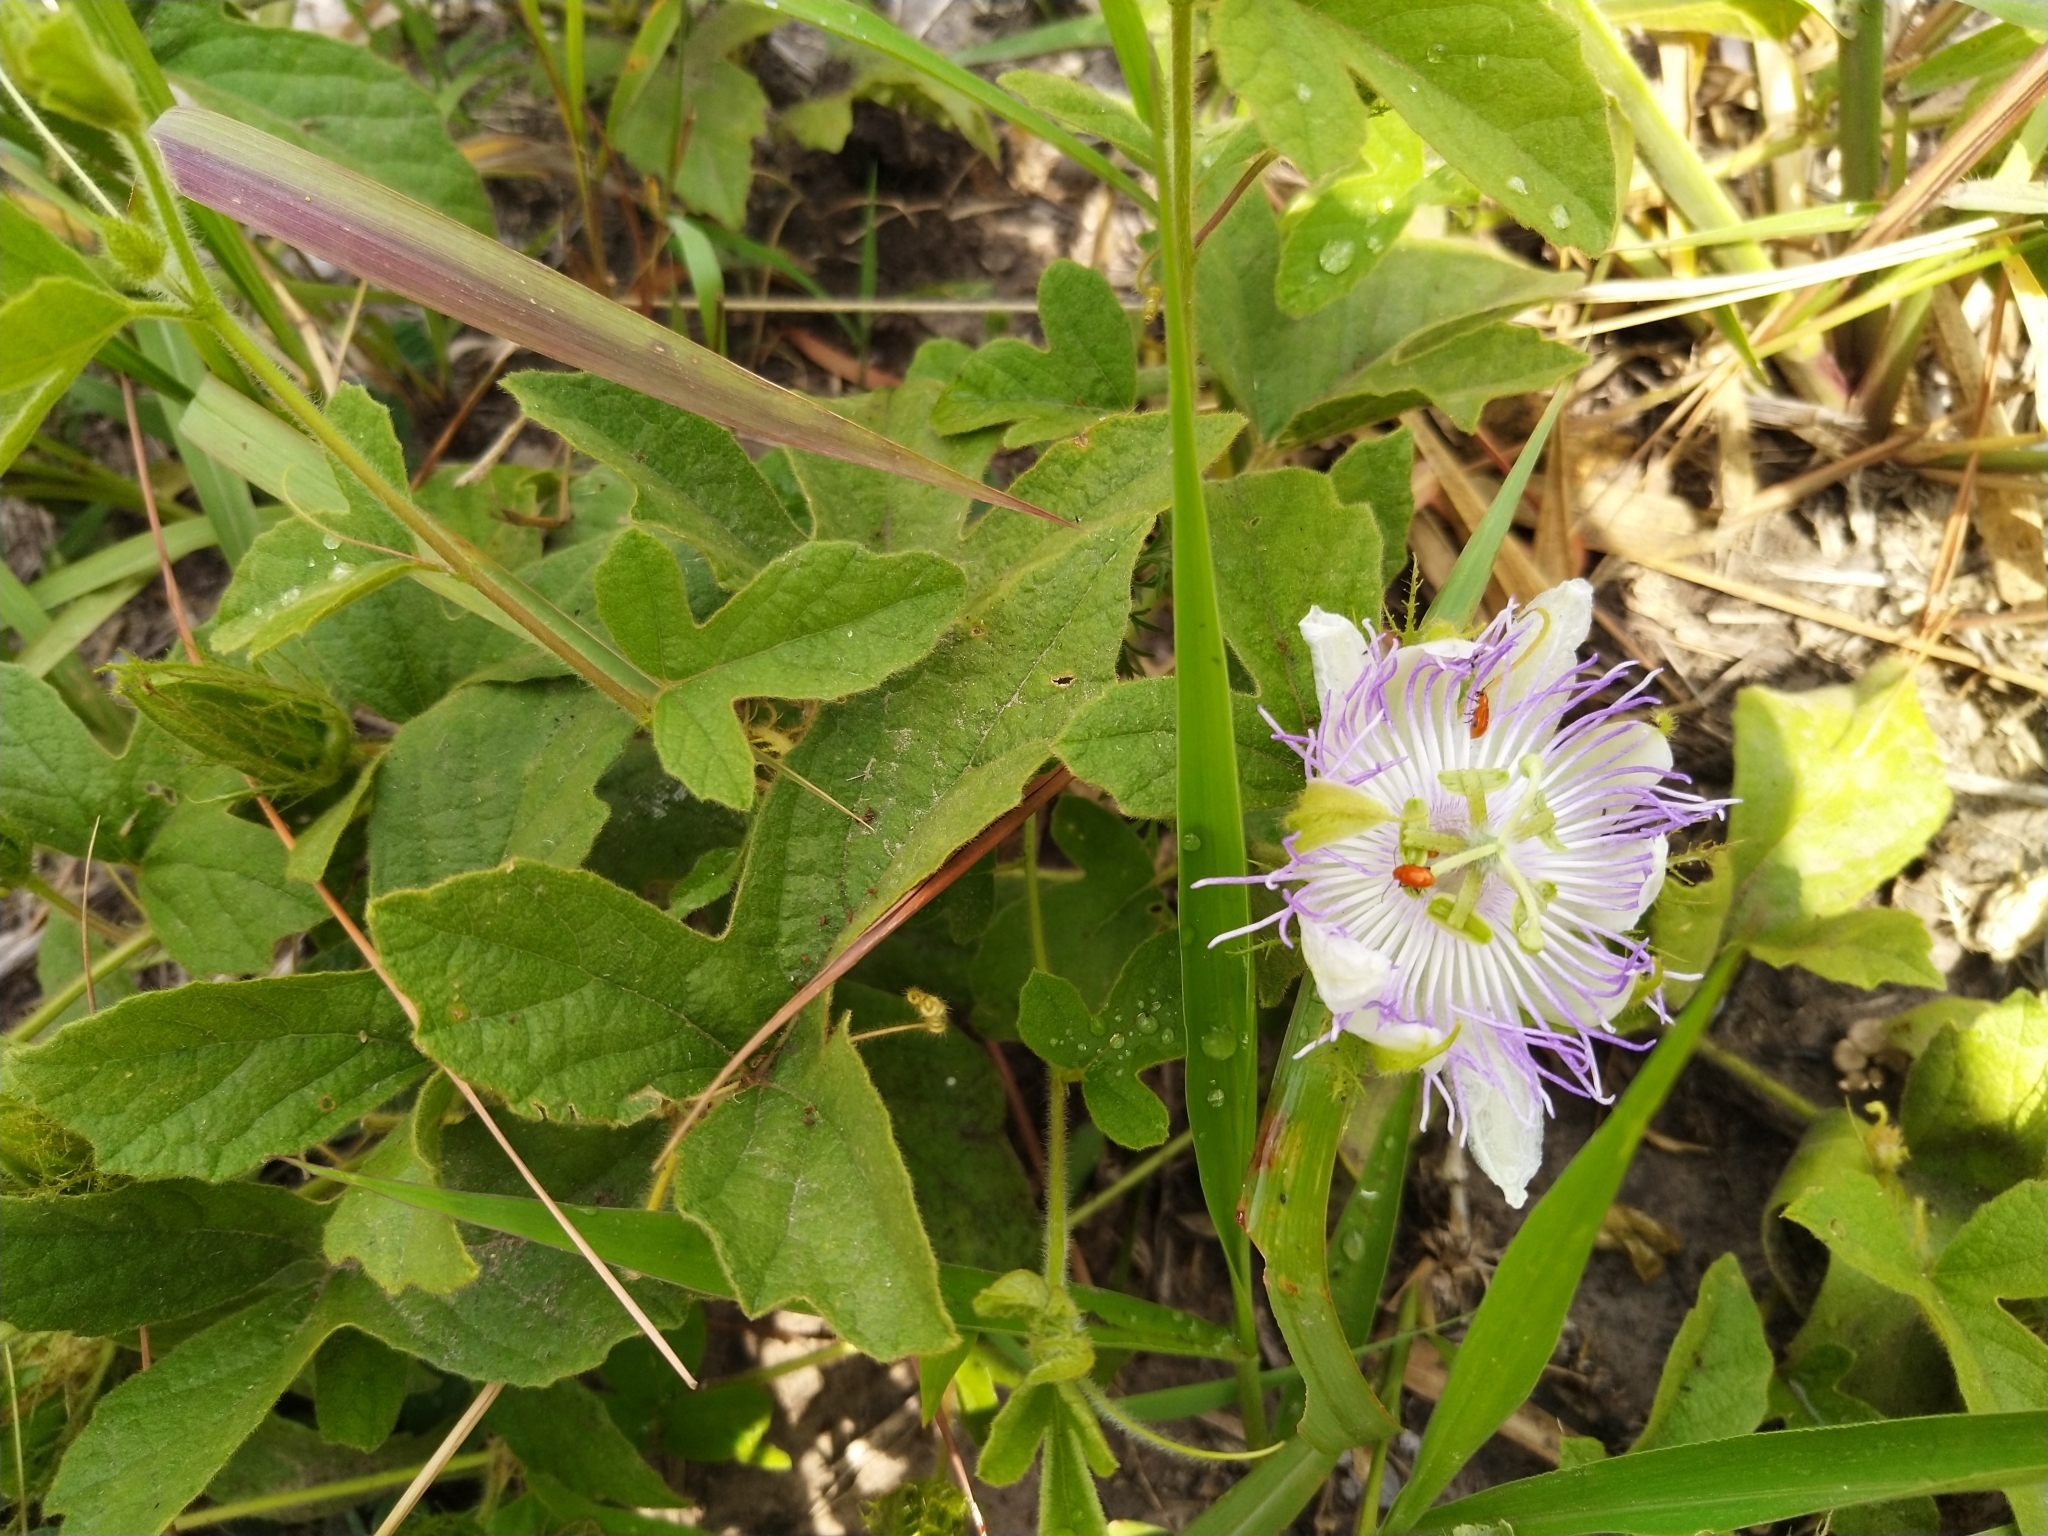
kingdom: Plantae
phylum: Tracheophyta
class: Magnoliopsida
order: Malpighiales
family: Passifloraceae
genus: Passiflora
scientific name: Passiflora chrysophylla
